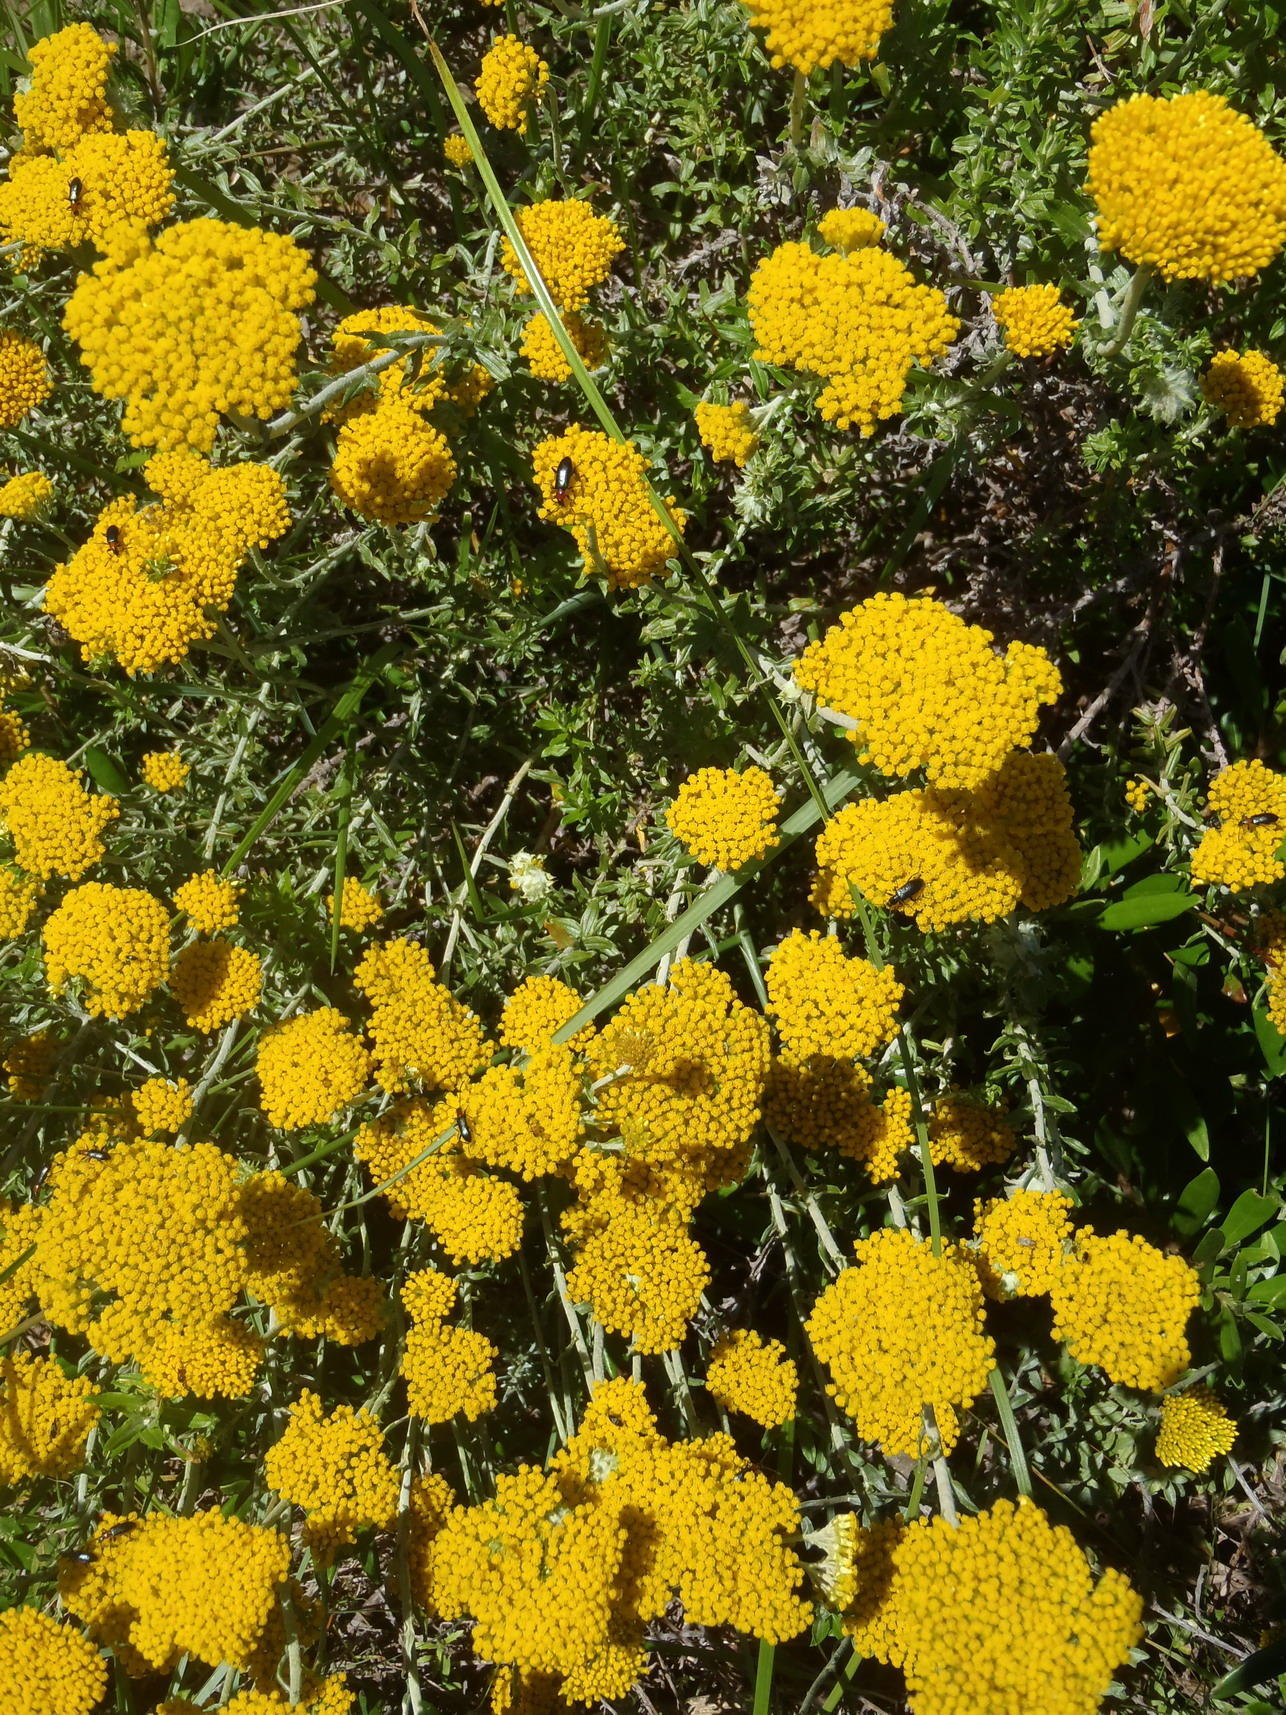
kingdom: Plantae
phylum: Tracheophyta
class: Magnoliopsida
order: Asterales
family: Asteraceae
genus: Helichrysum
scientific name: Helichrysum cymosum
